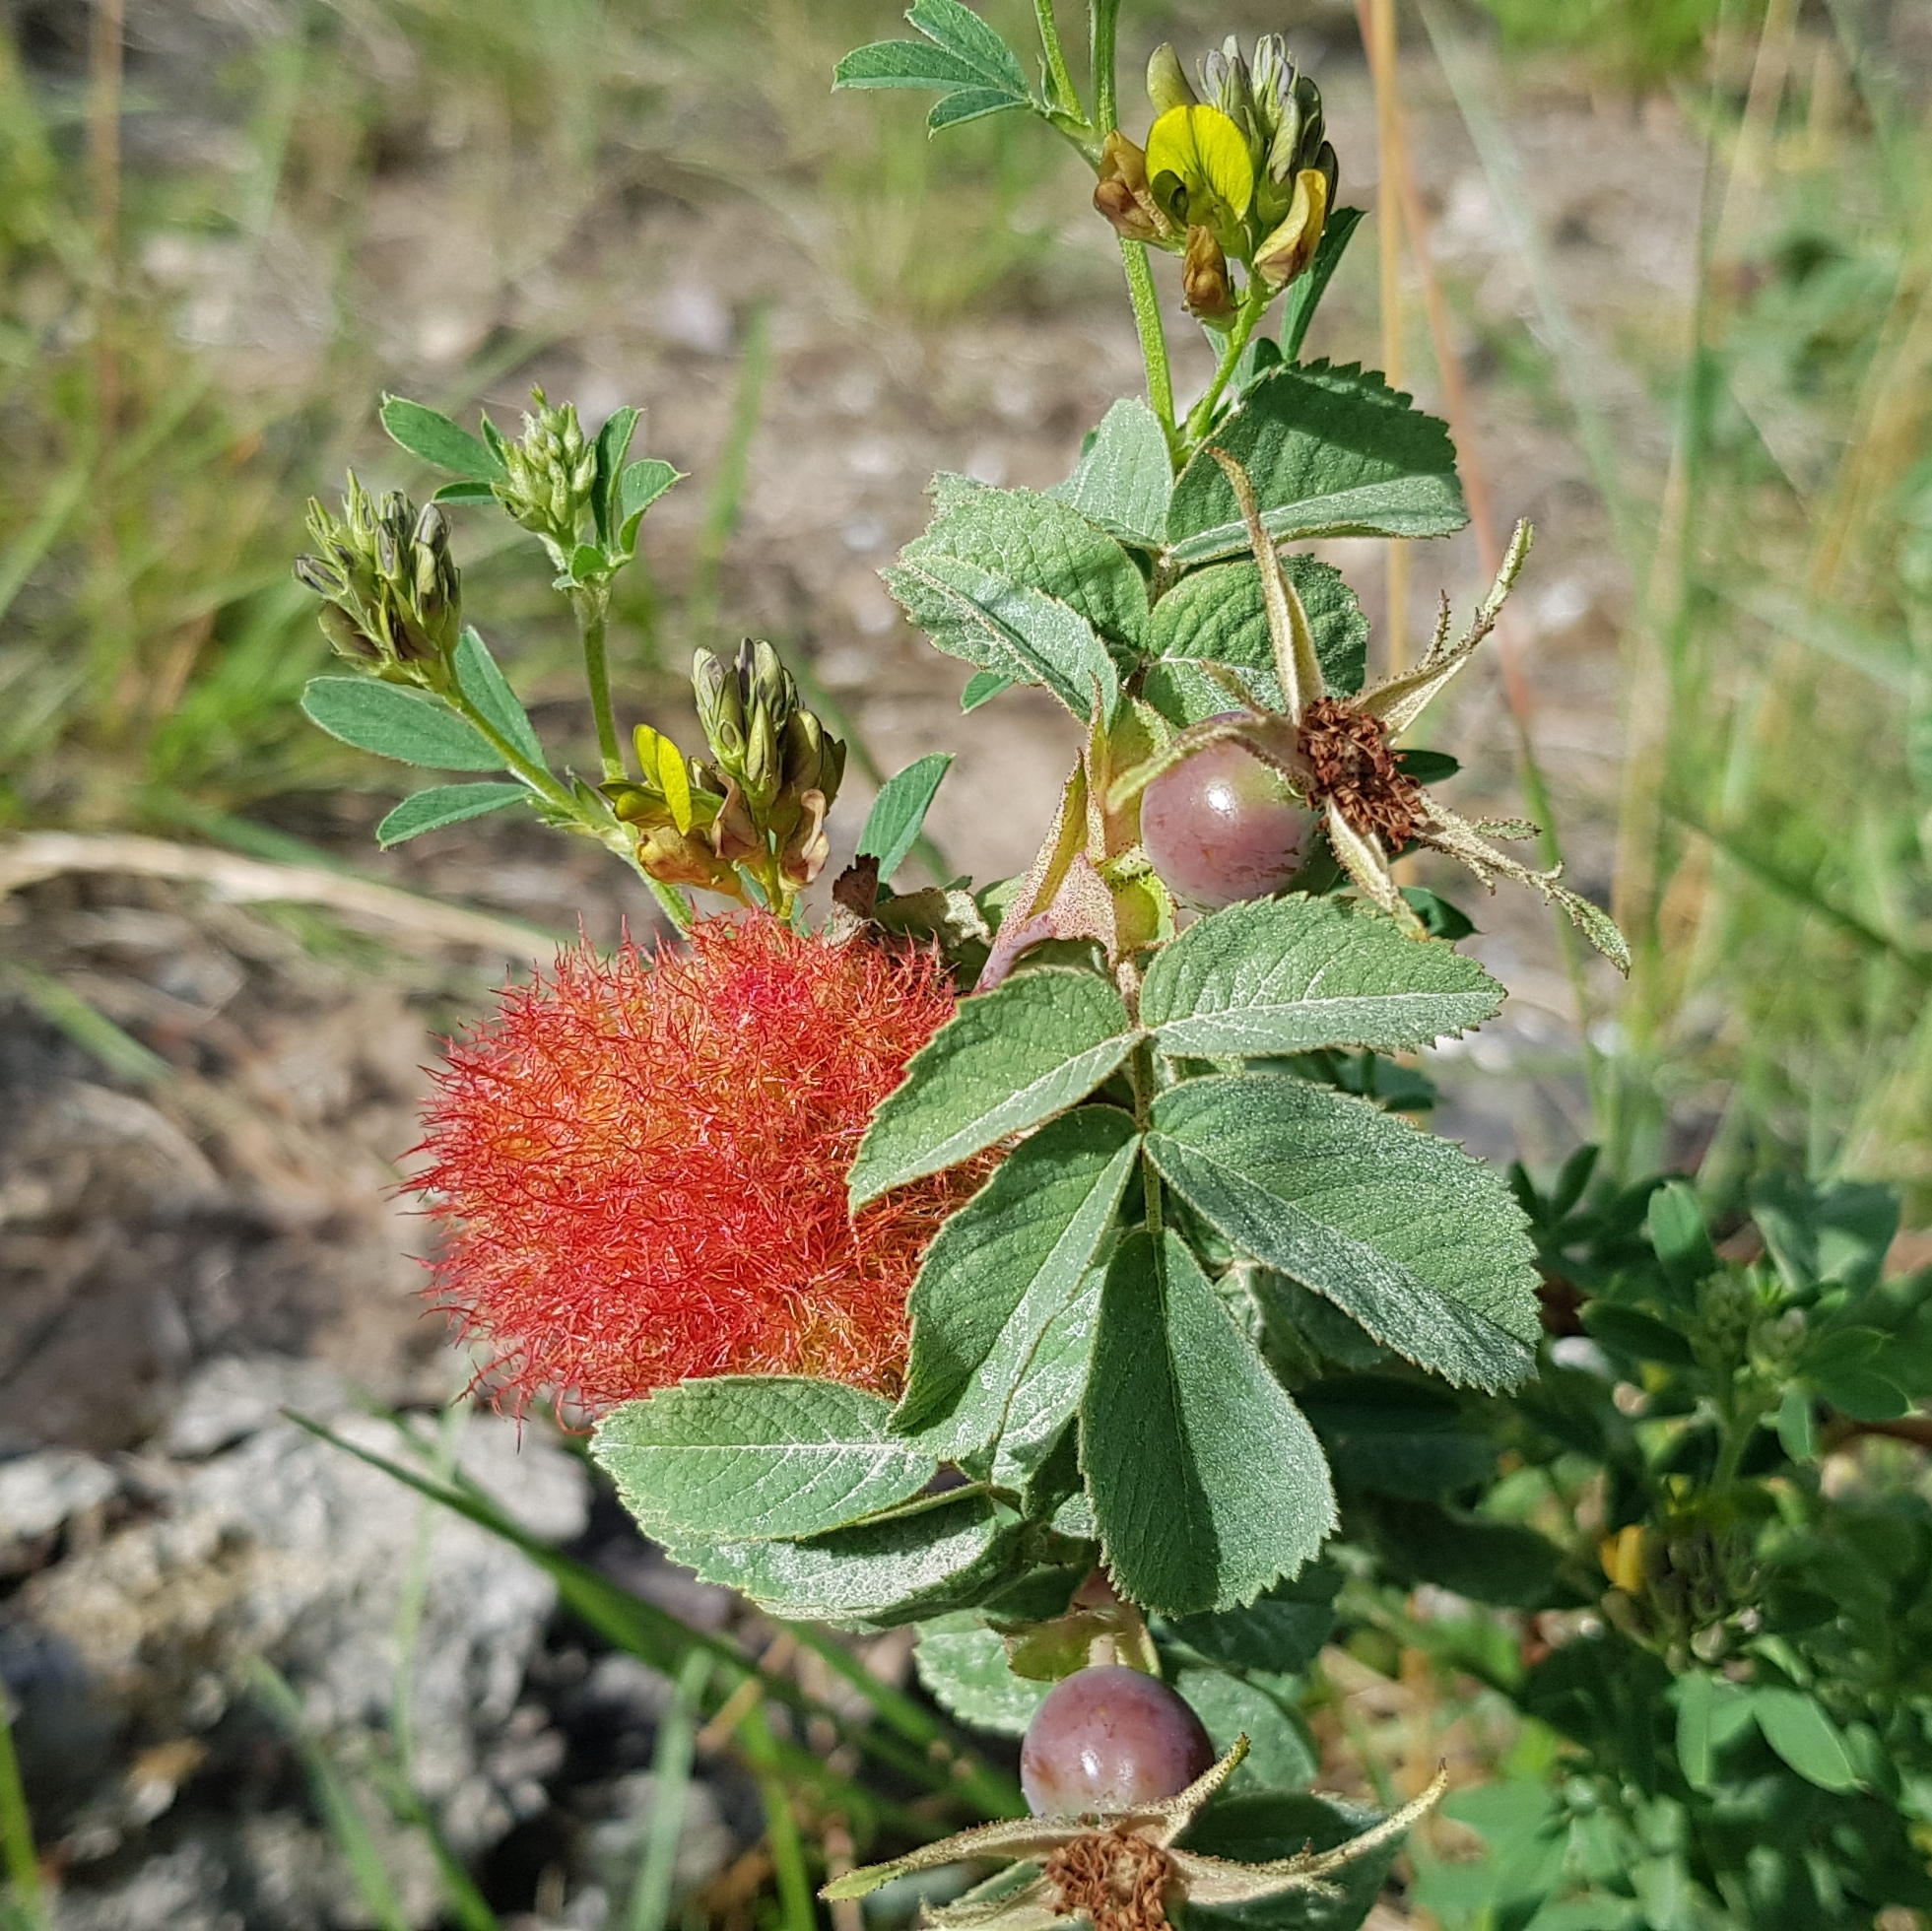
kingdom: Animalia
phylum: Arthropoda
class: Insecta
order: Hymenoptera
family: Cynipidae
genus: Diplolepis
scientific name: Diplolepis rosae
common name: Bedeguar gall
